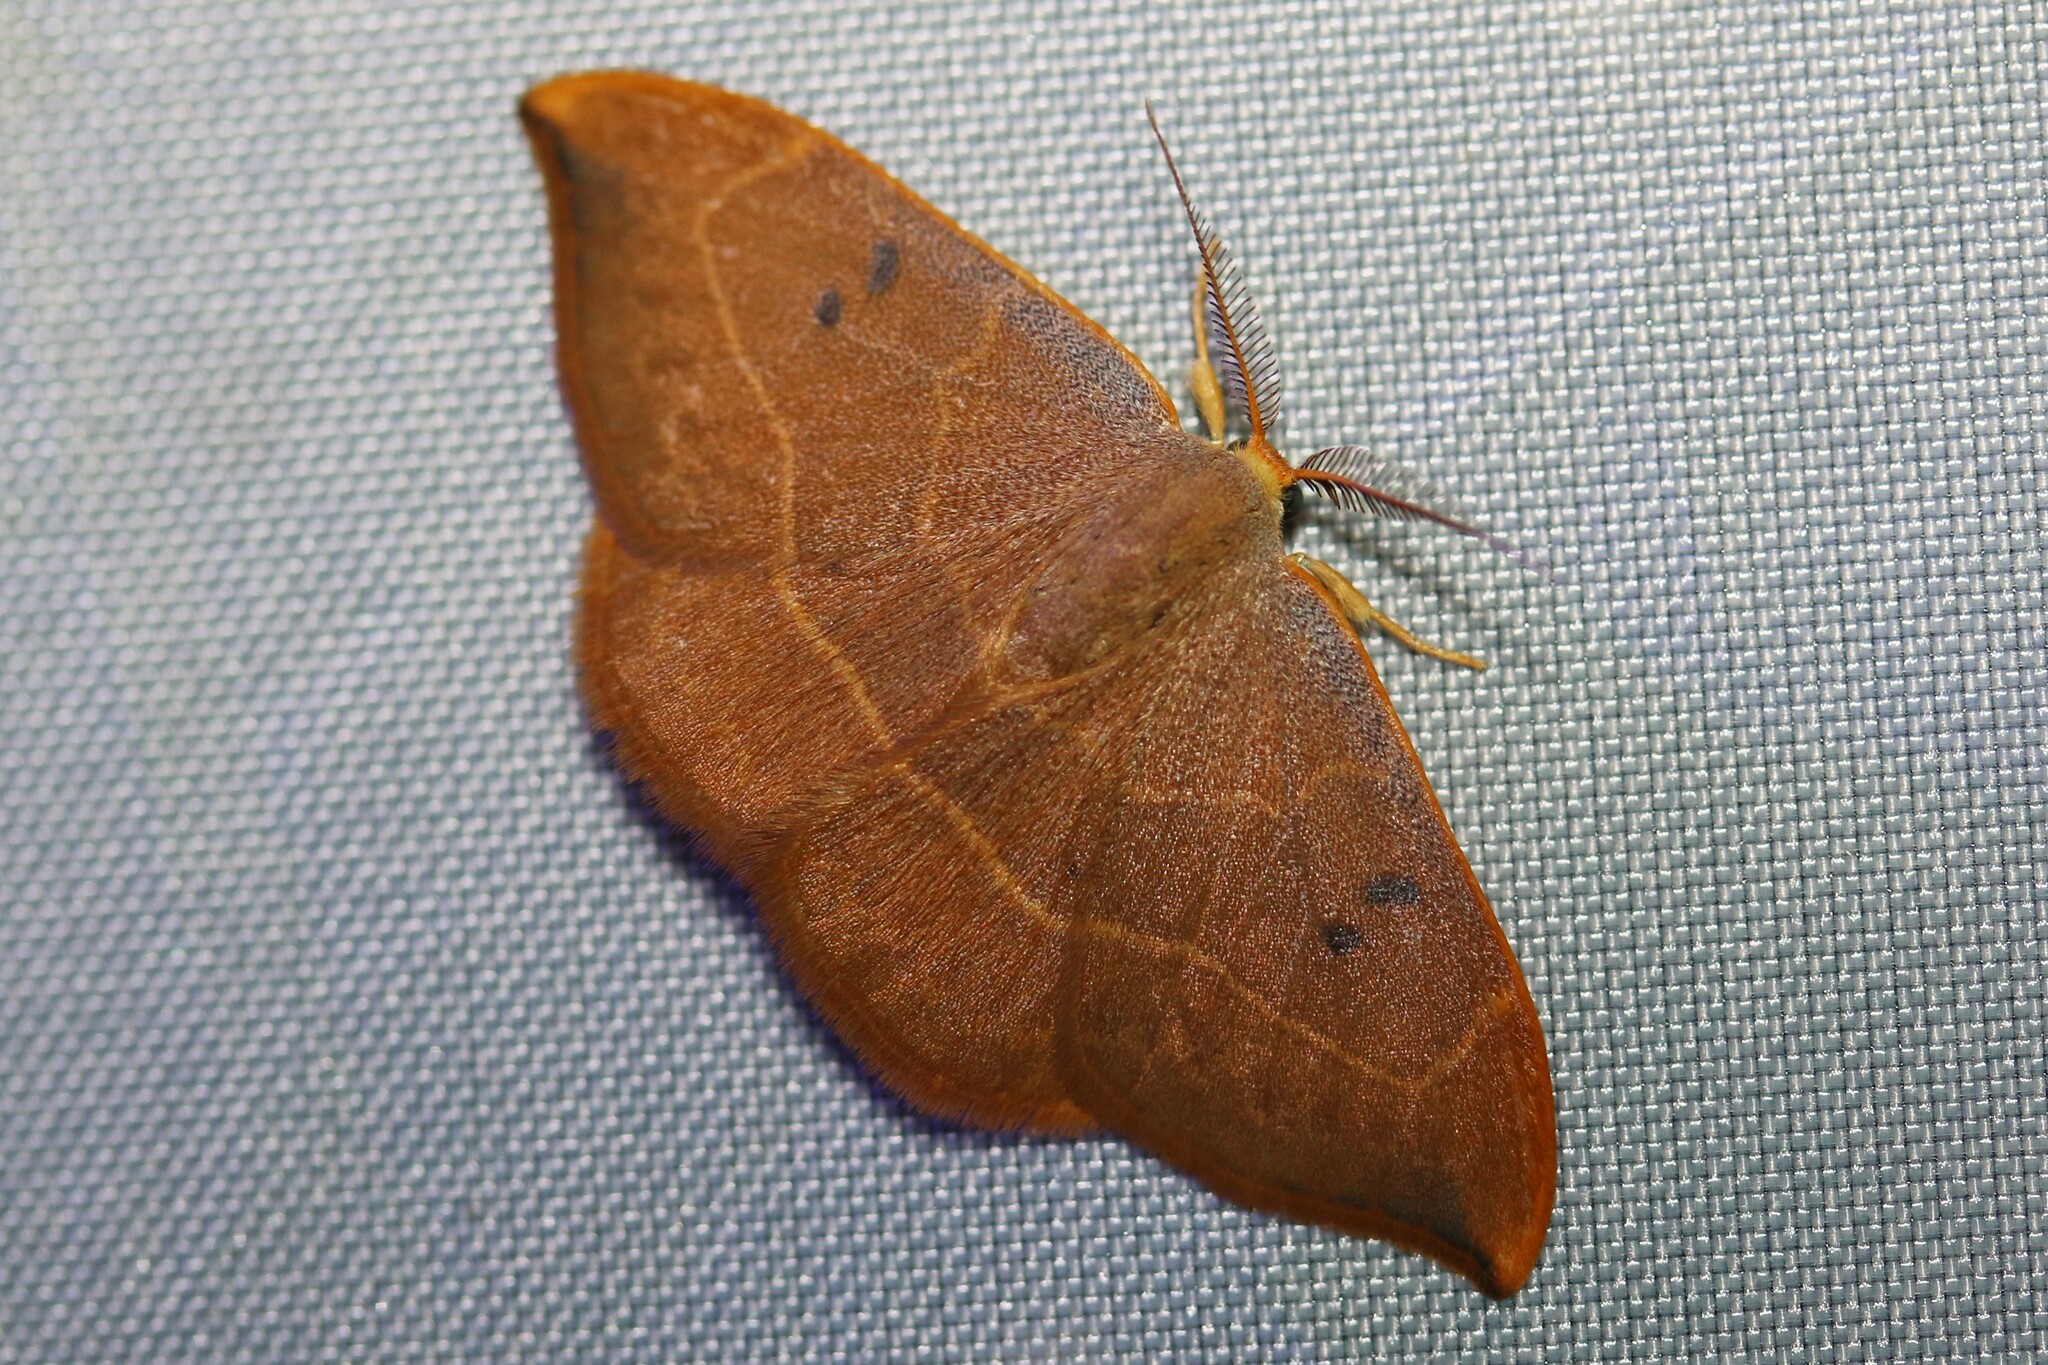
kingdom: Animalia
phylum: Arthropoda
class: Insecta
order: Lepidoptera
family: Drepanidae
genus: Watsonalla
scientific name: Watsonalla binaria
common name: Oak hook-tip
